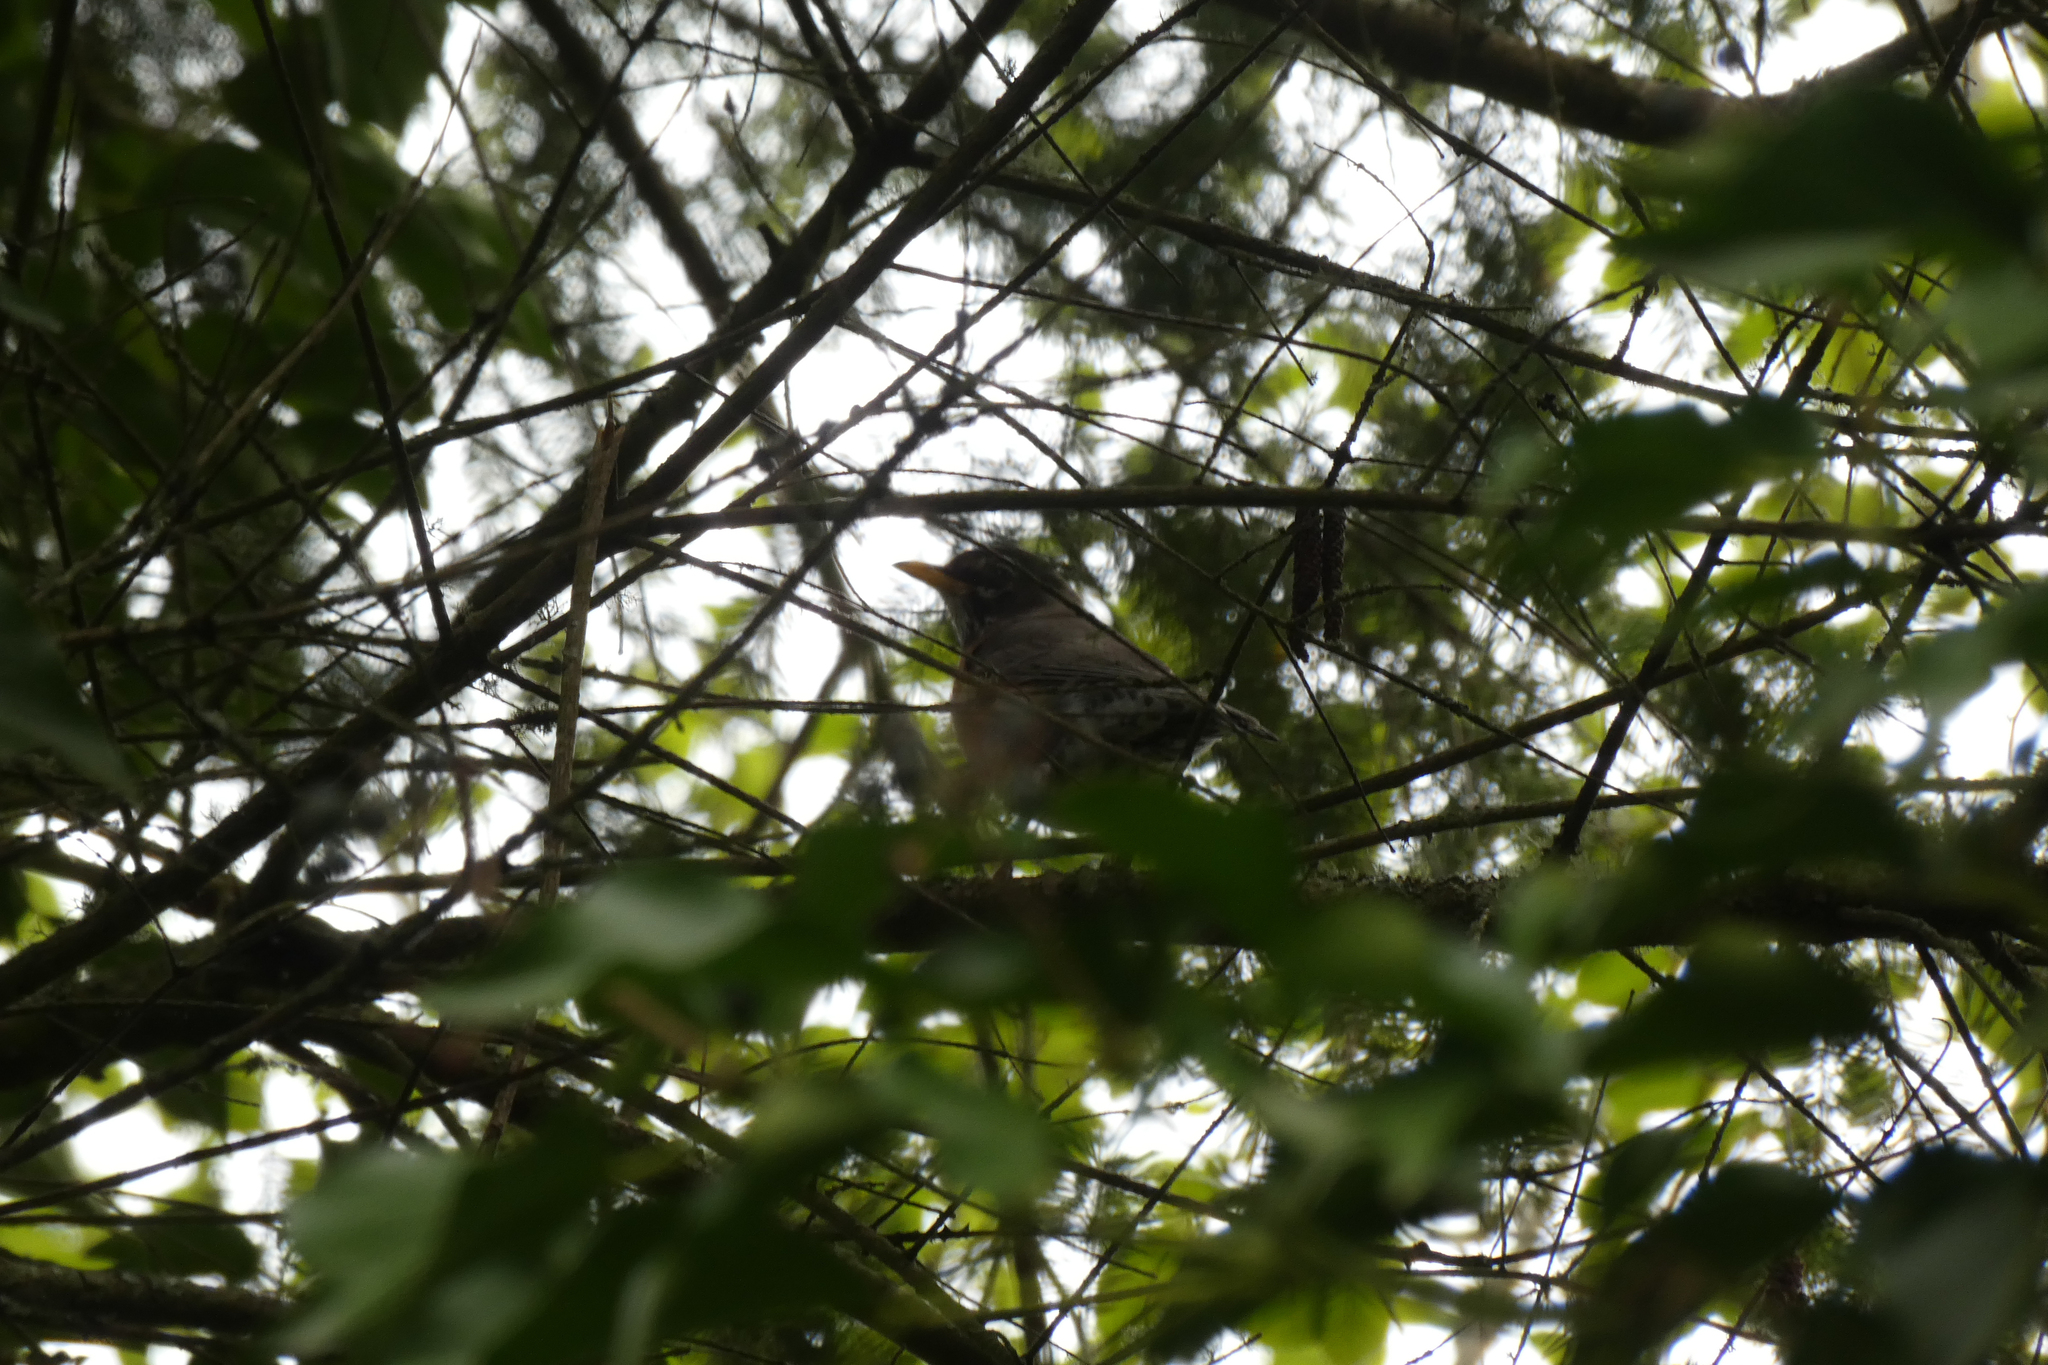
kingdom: Animalia
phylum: Chordata
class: Aves
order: Passeriformes
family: Turdidae
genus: Turdus
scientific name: Turdus migratorius
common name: American robin
